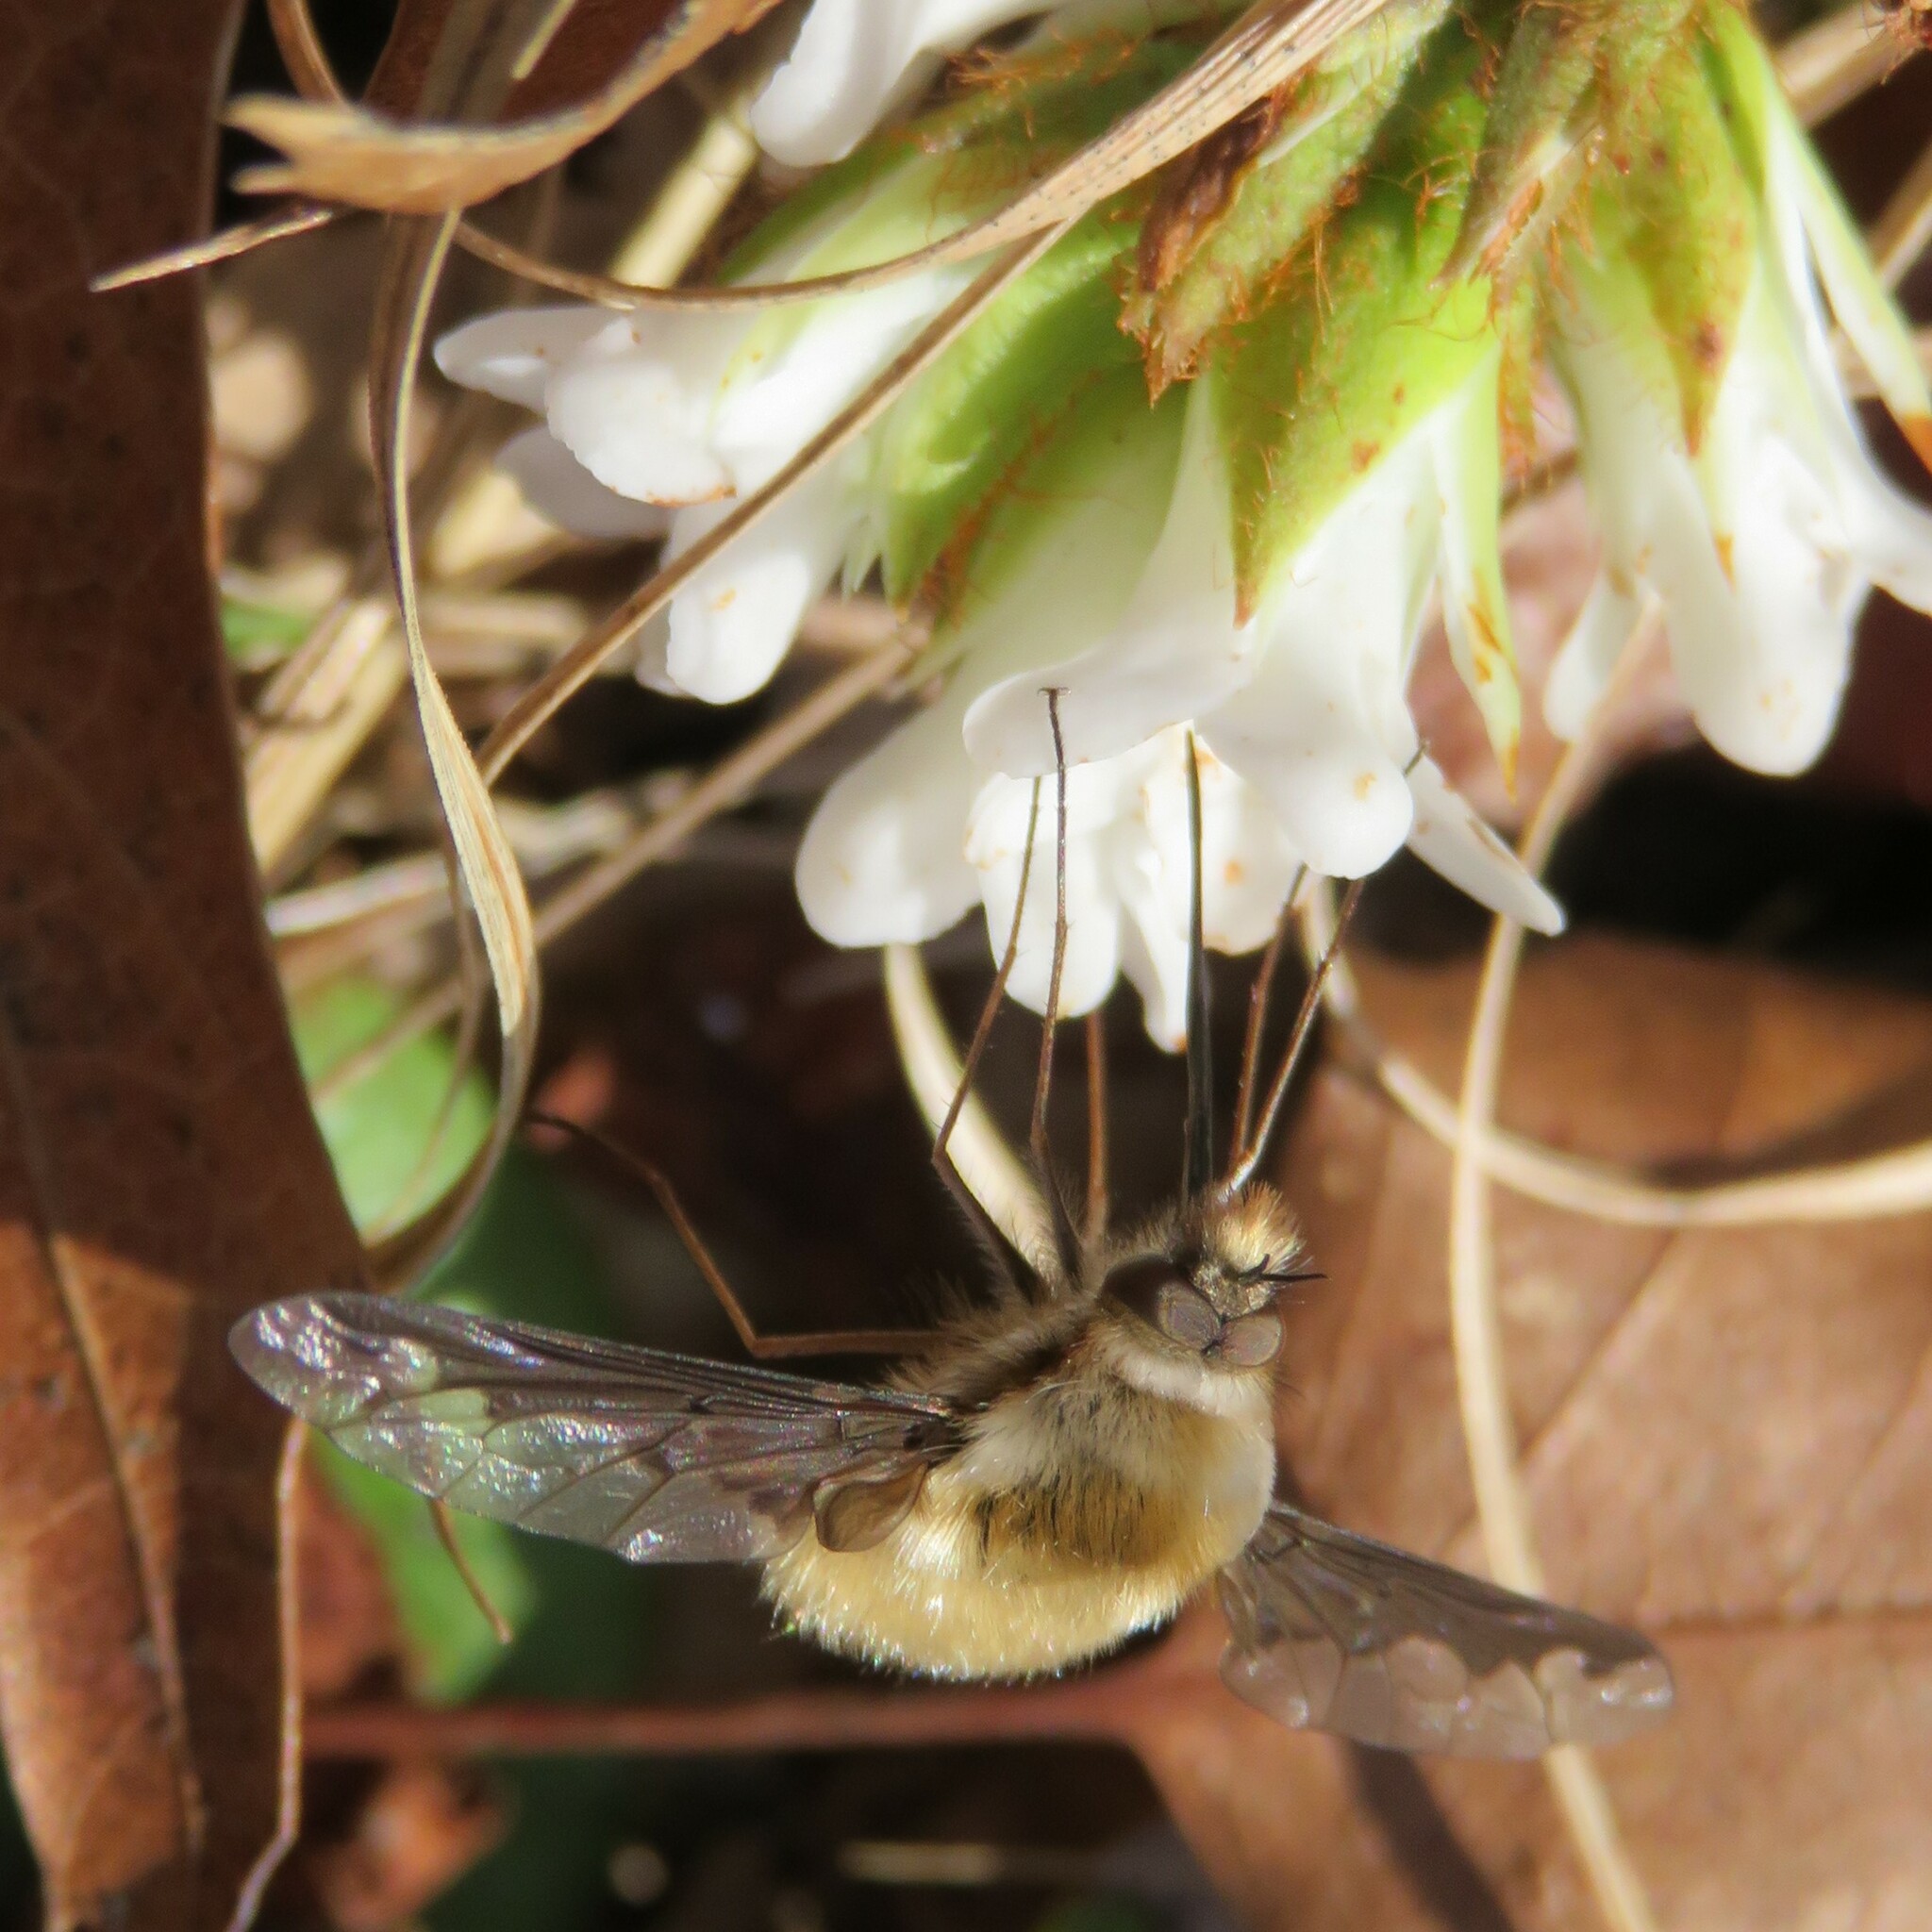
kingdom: Animalia
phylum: Arthropoda
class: Insecta
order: Diptera
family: Bombyliidae
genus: Bombylius
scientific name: Bombylius major
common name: Bee fly
